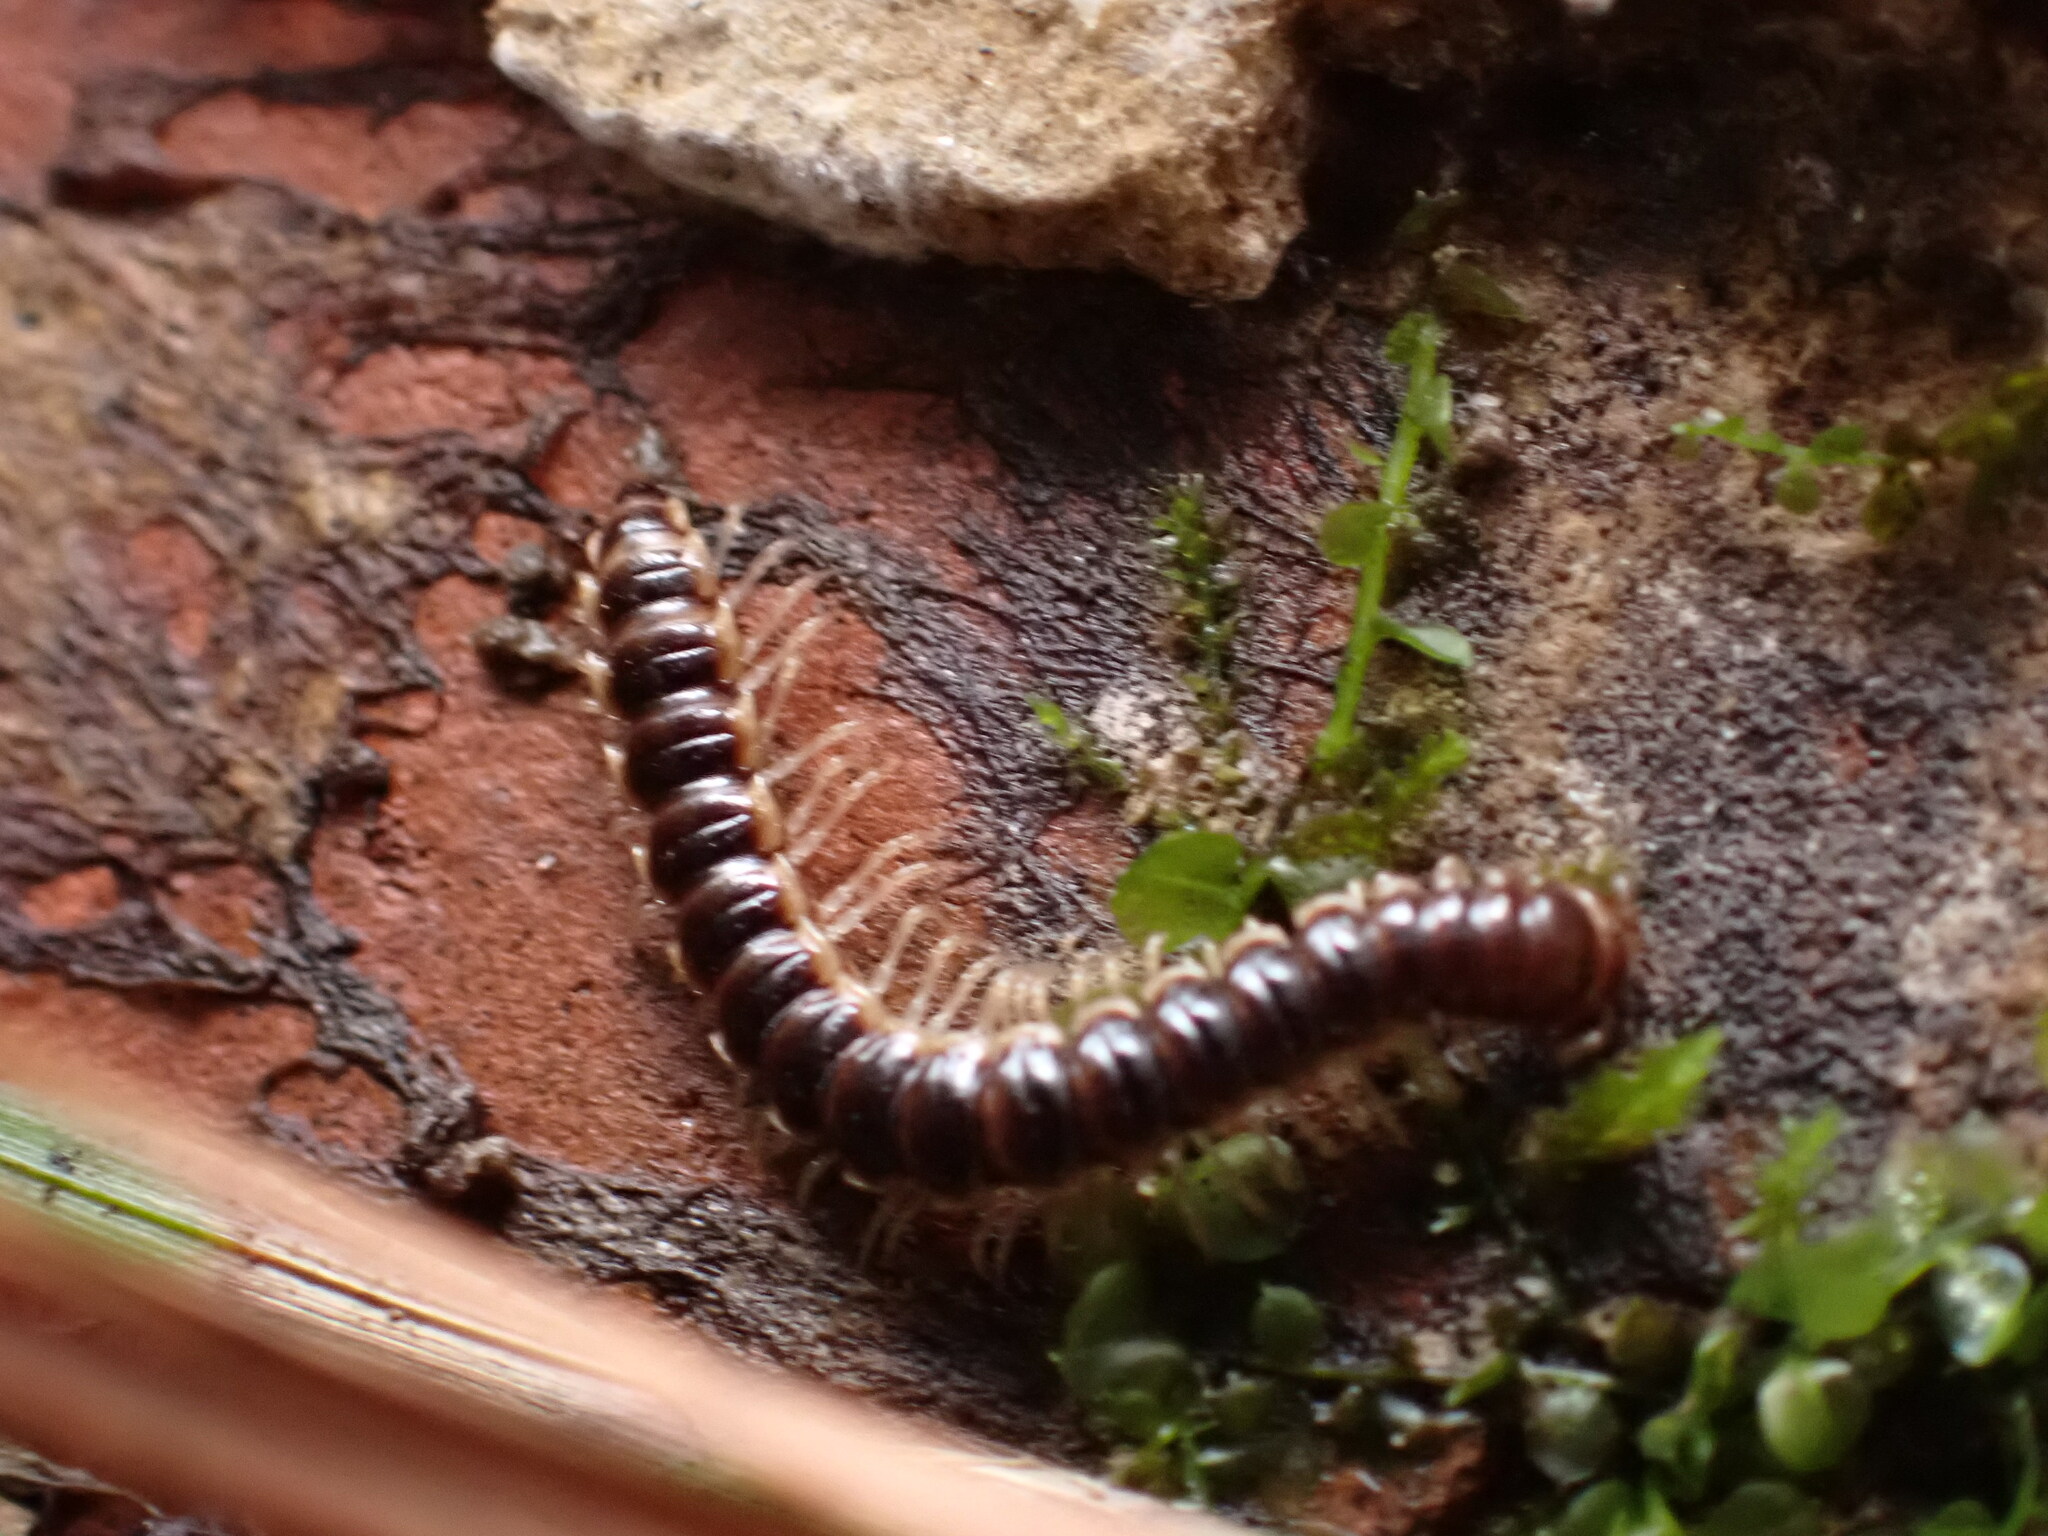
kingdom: Animalia
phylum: Arthropoda
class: Diplopoda
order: Polydesmida
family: Paradoxosomatidae
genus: Oxidus
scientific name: Oxidus gracilis
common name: Greenhouse millipede
